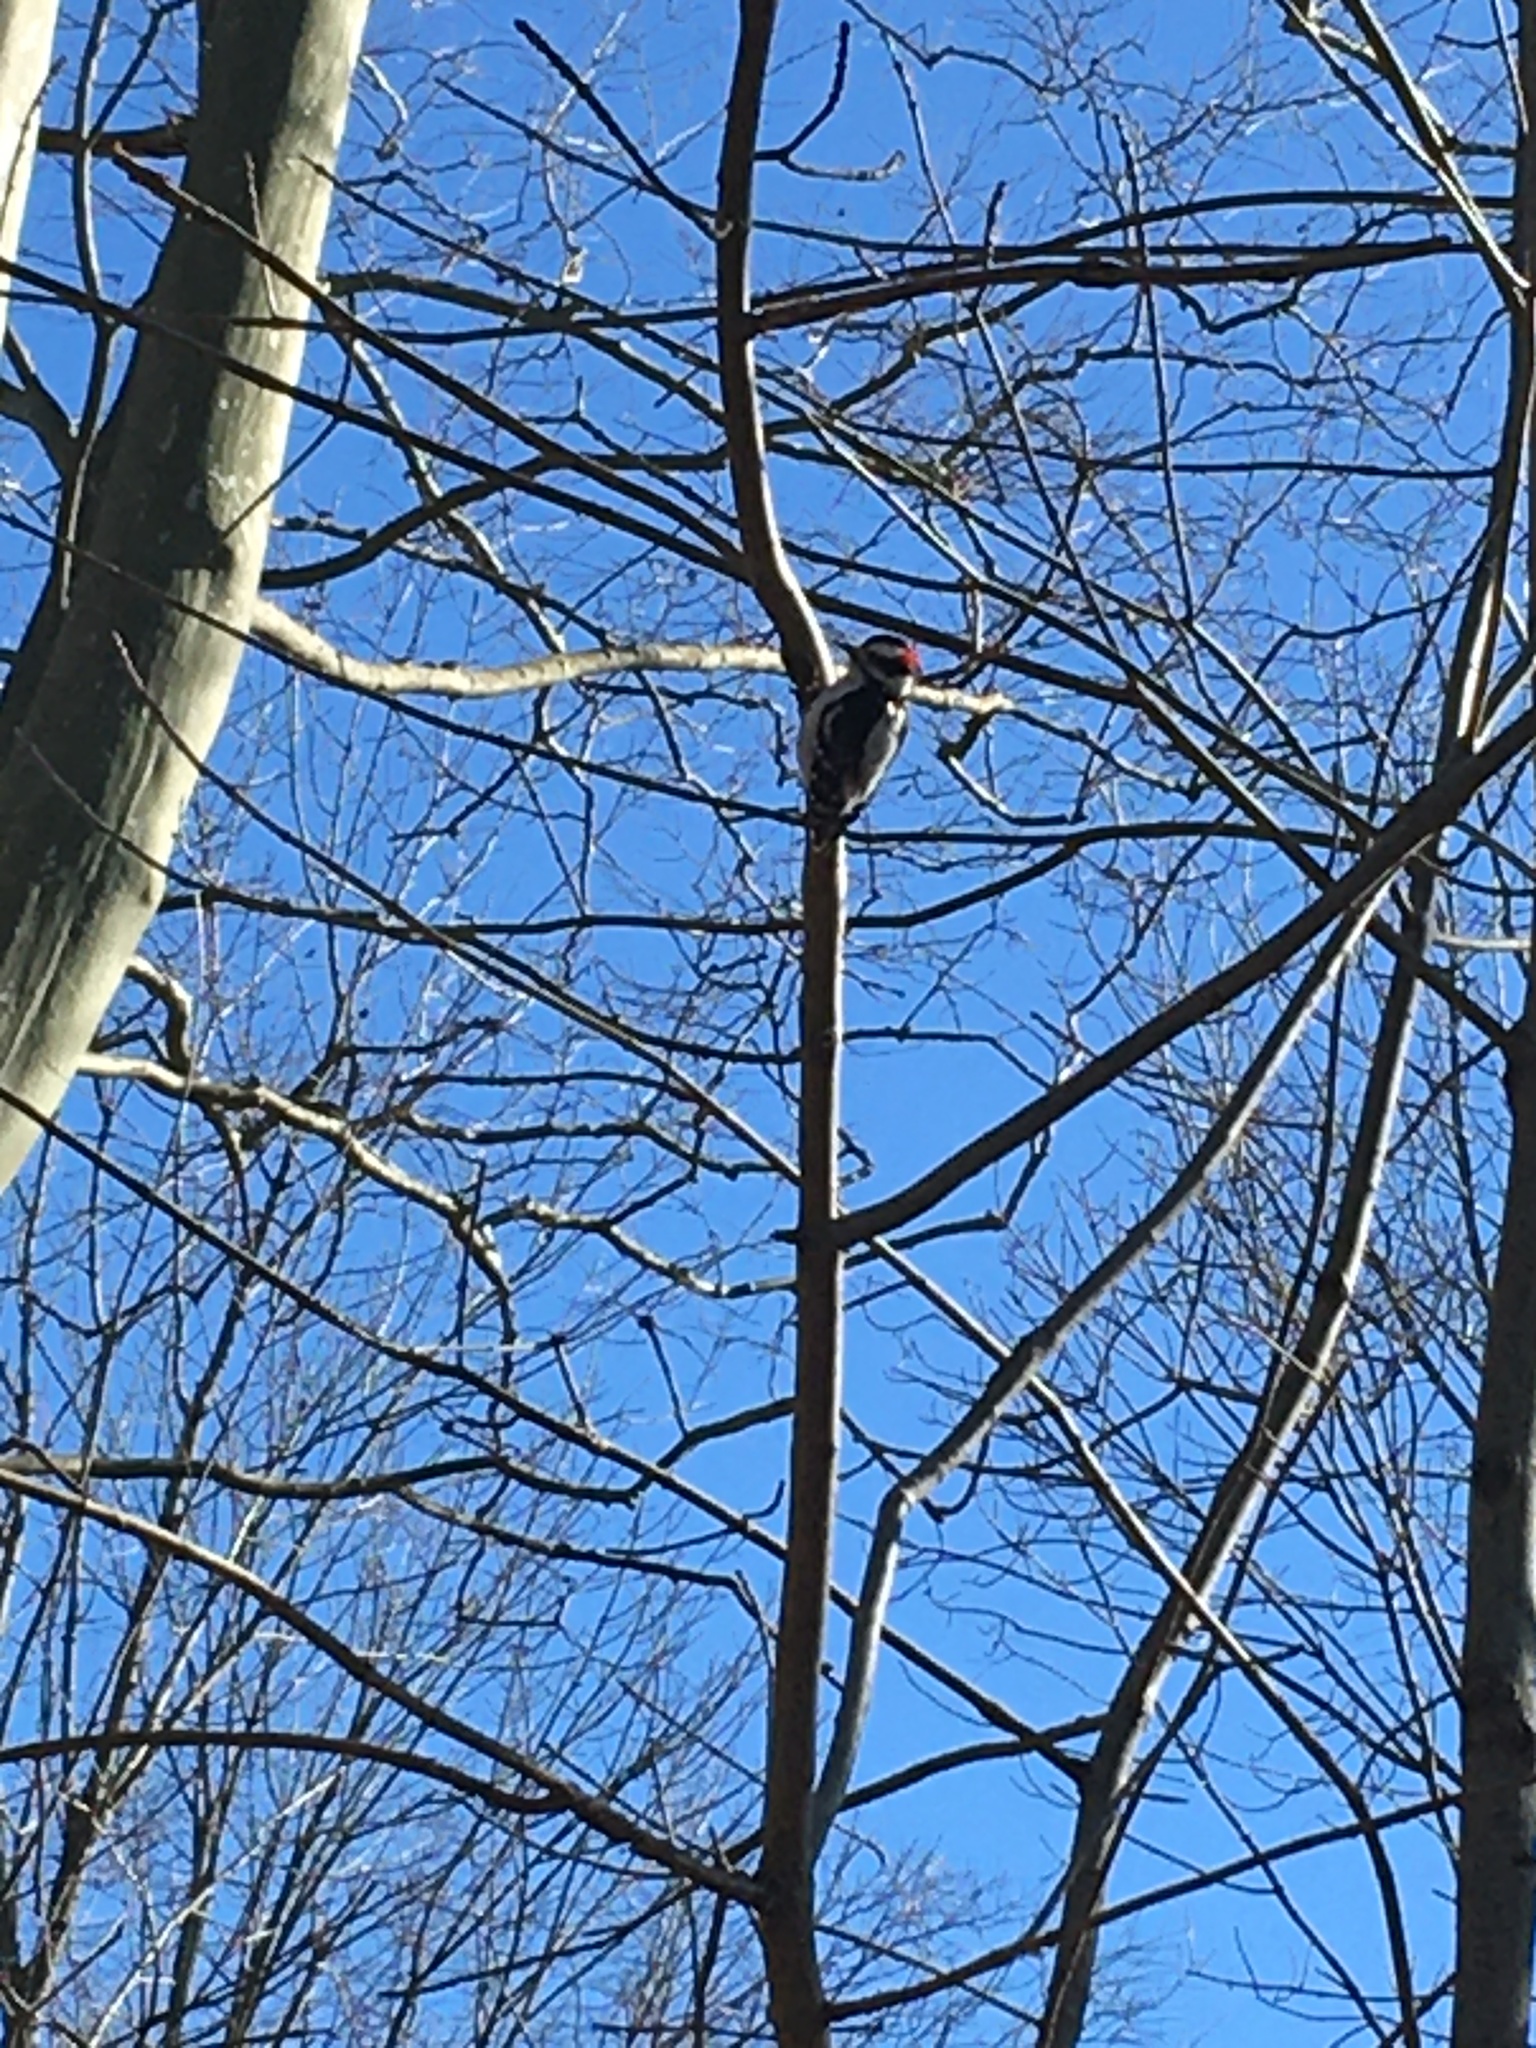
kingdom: Animalia
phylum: Chordata
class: Aves
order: Piciformes
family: Picidae
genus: Dryobates
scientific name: Dryobates pubescens
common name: Downy woodpecker
